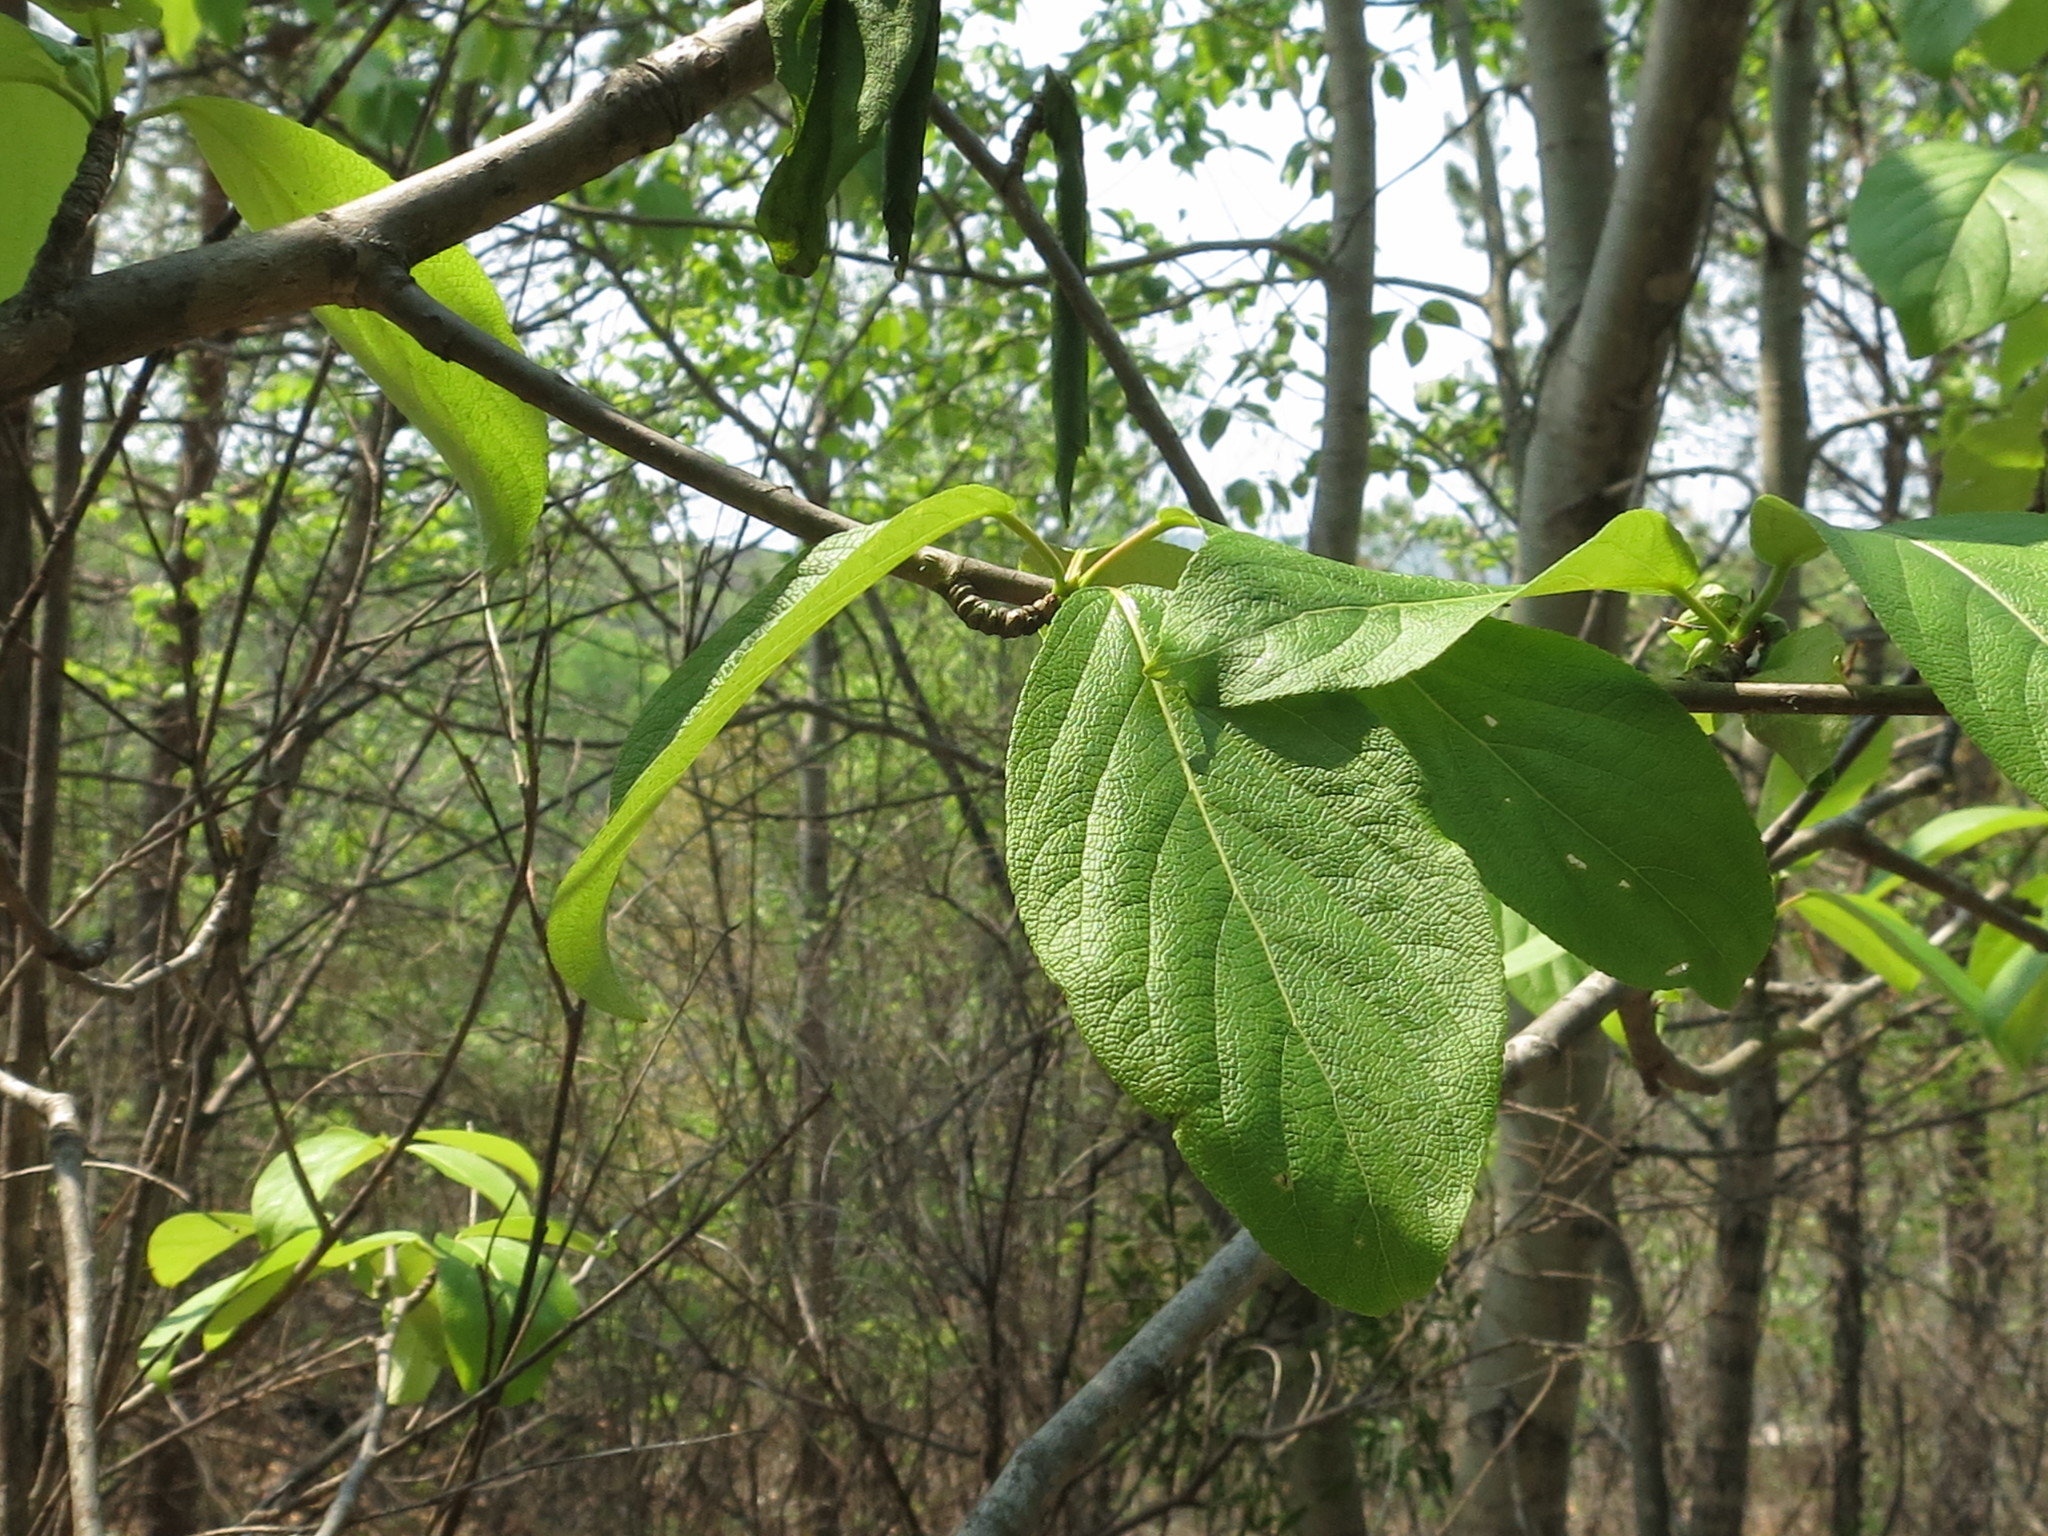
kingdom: Plantae
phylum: Tracheophyta
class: Magnoliopsida
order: Malpighiales
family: Salicaceae
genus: Populus
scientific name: Populus suaveolens
